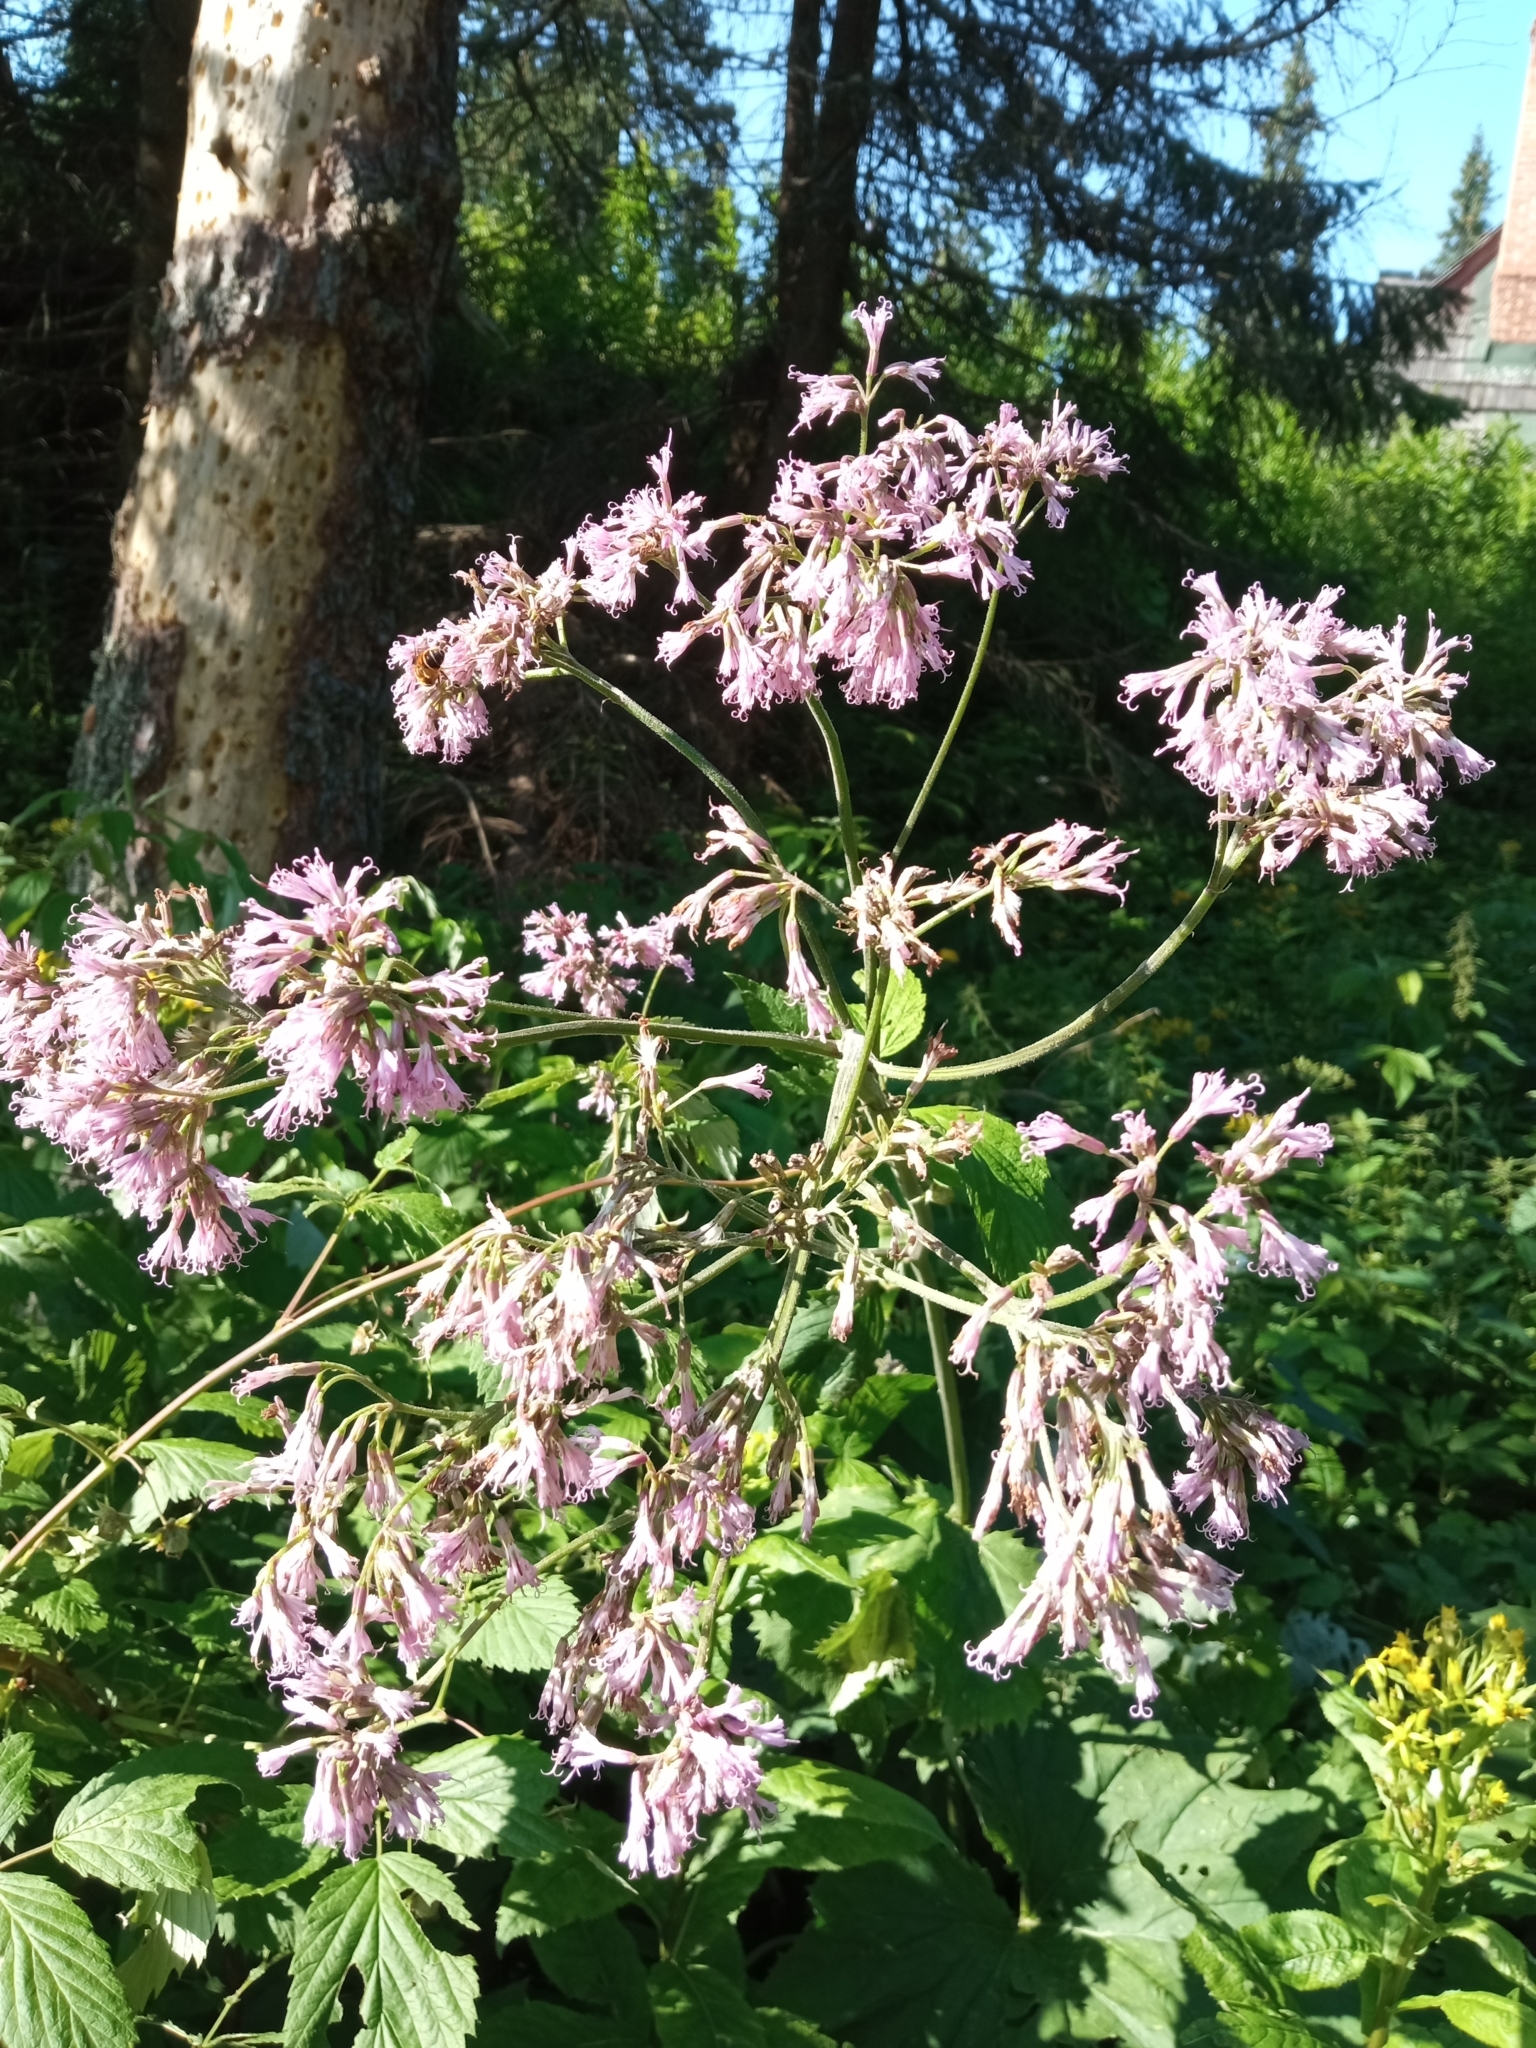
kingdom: Plantae
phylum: Tracheophyta
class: Magnoliopsida
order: Asterales
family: Asteraceae
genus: Adenostyles
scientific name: Adenostyles alliariae
